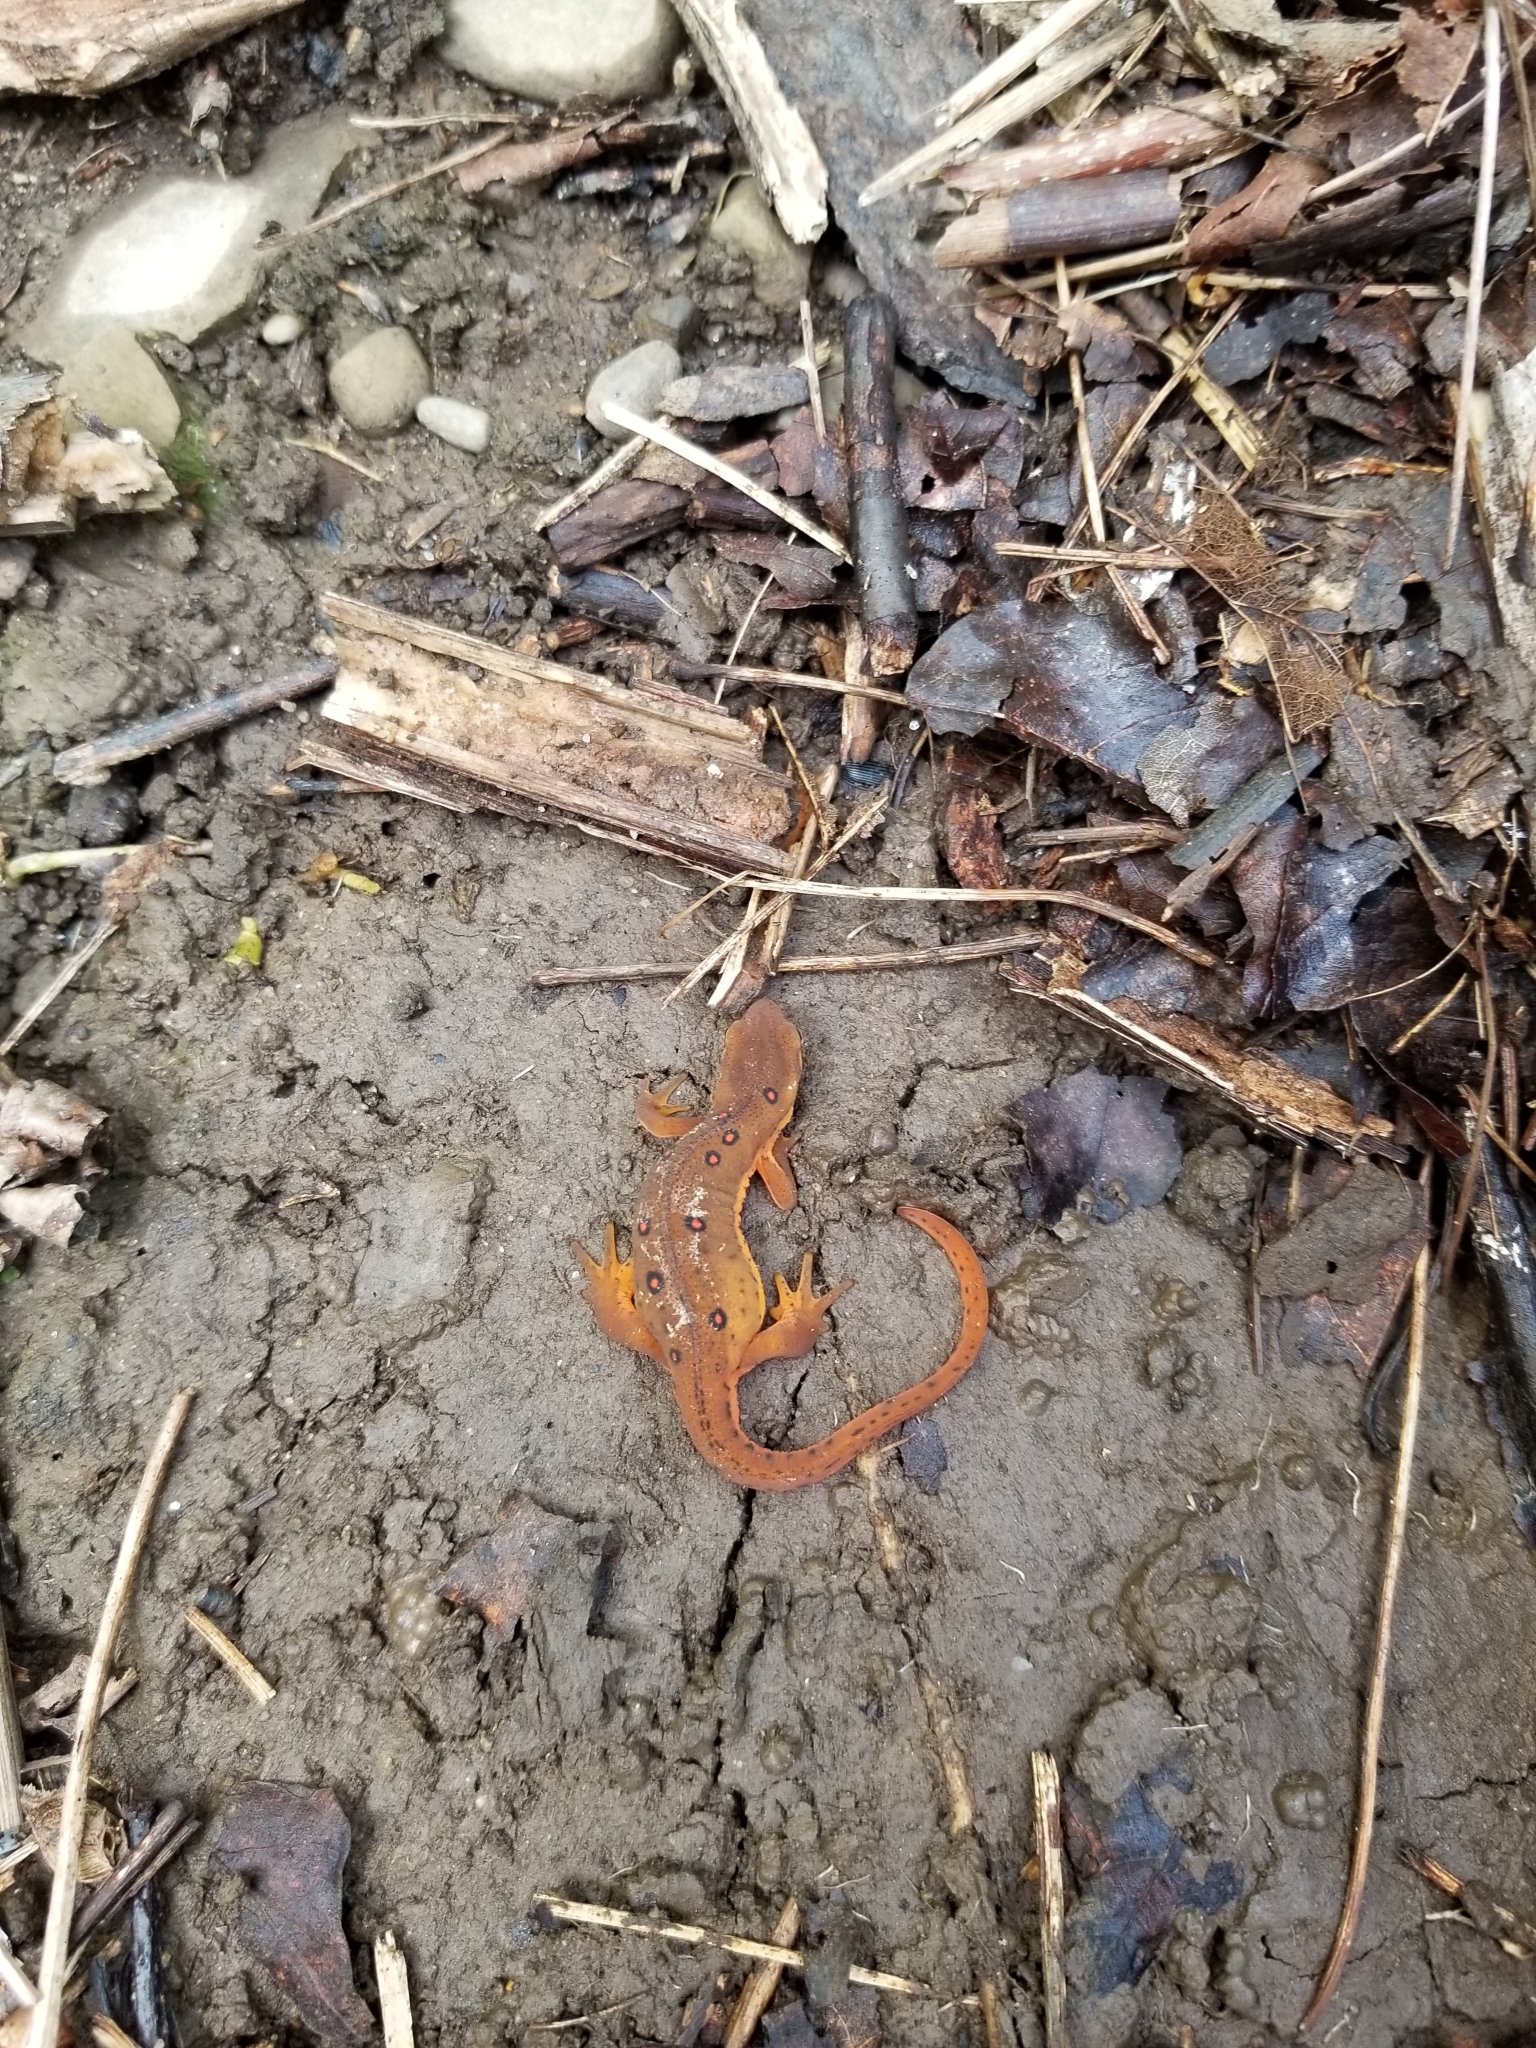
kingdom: Animalia
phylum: Chordata
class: Amphibia
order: Caudata
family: Salamandridae
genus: Notophthalmus
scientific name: Notophthalmus viridescens
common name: Eastern newt
